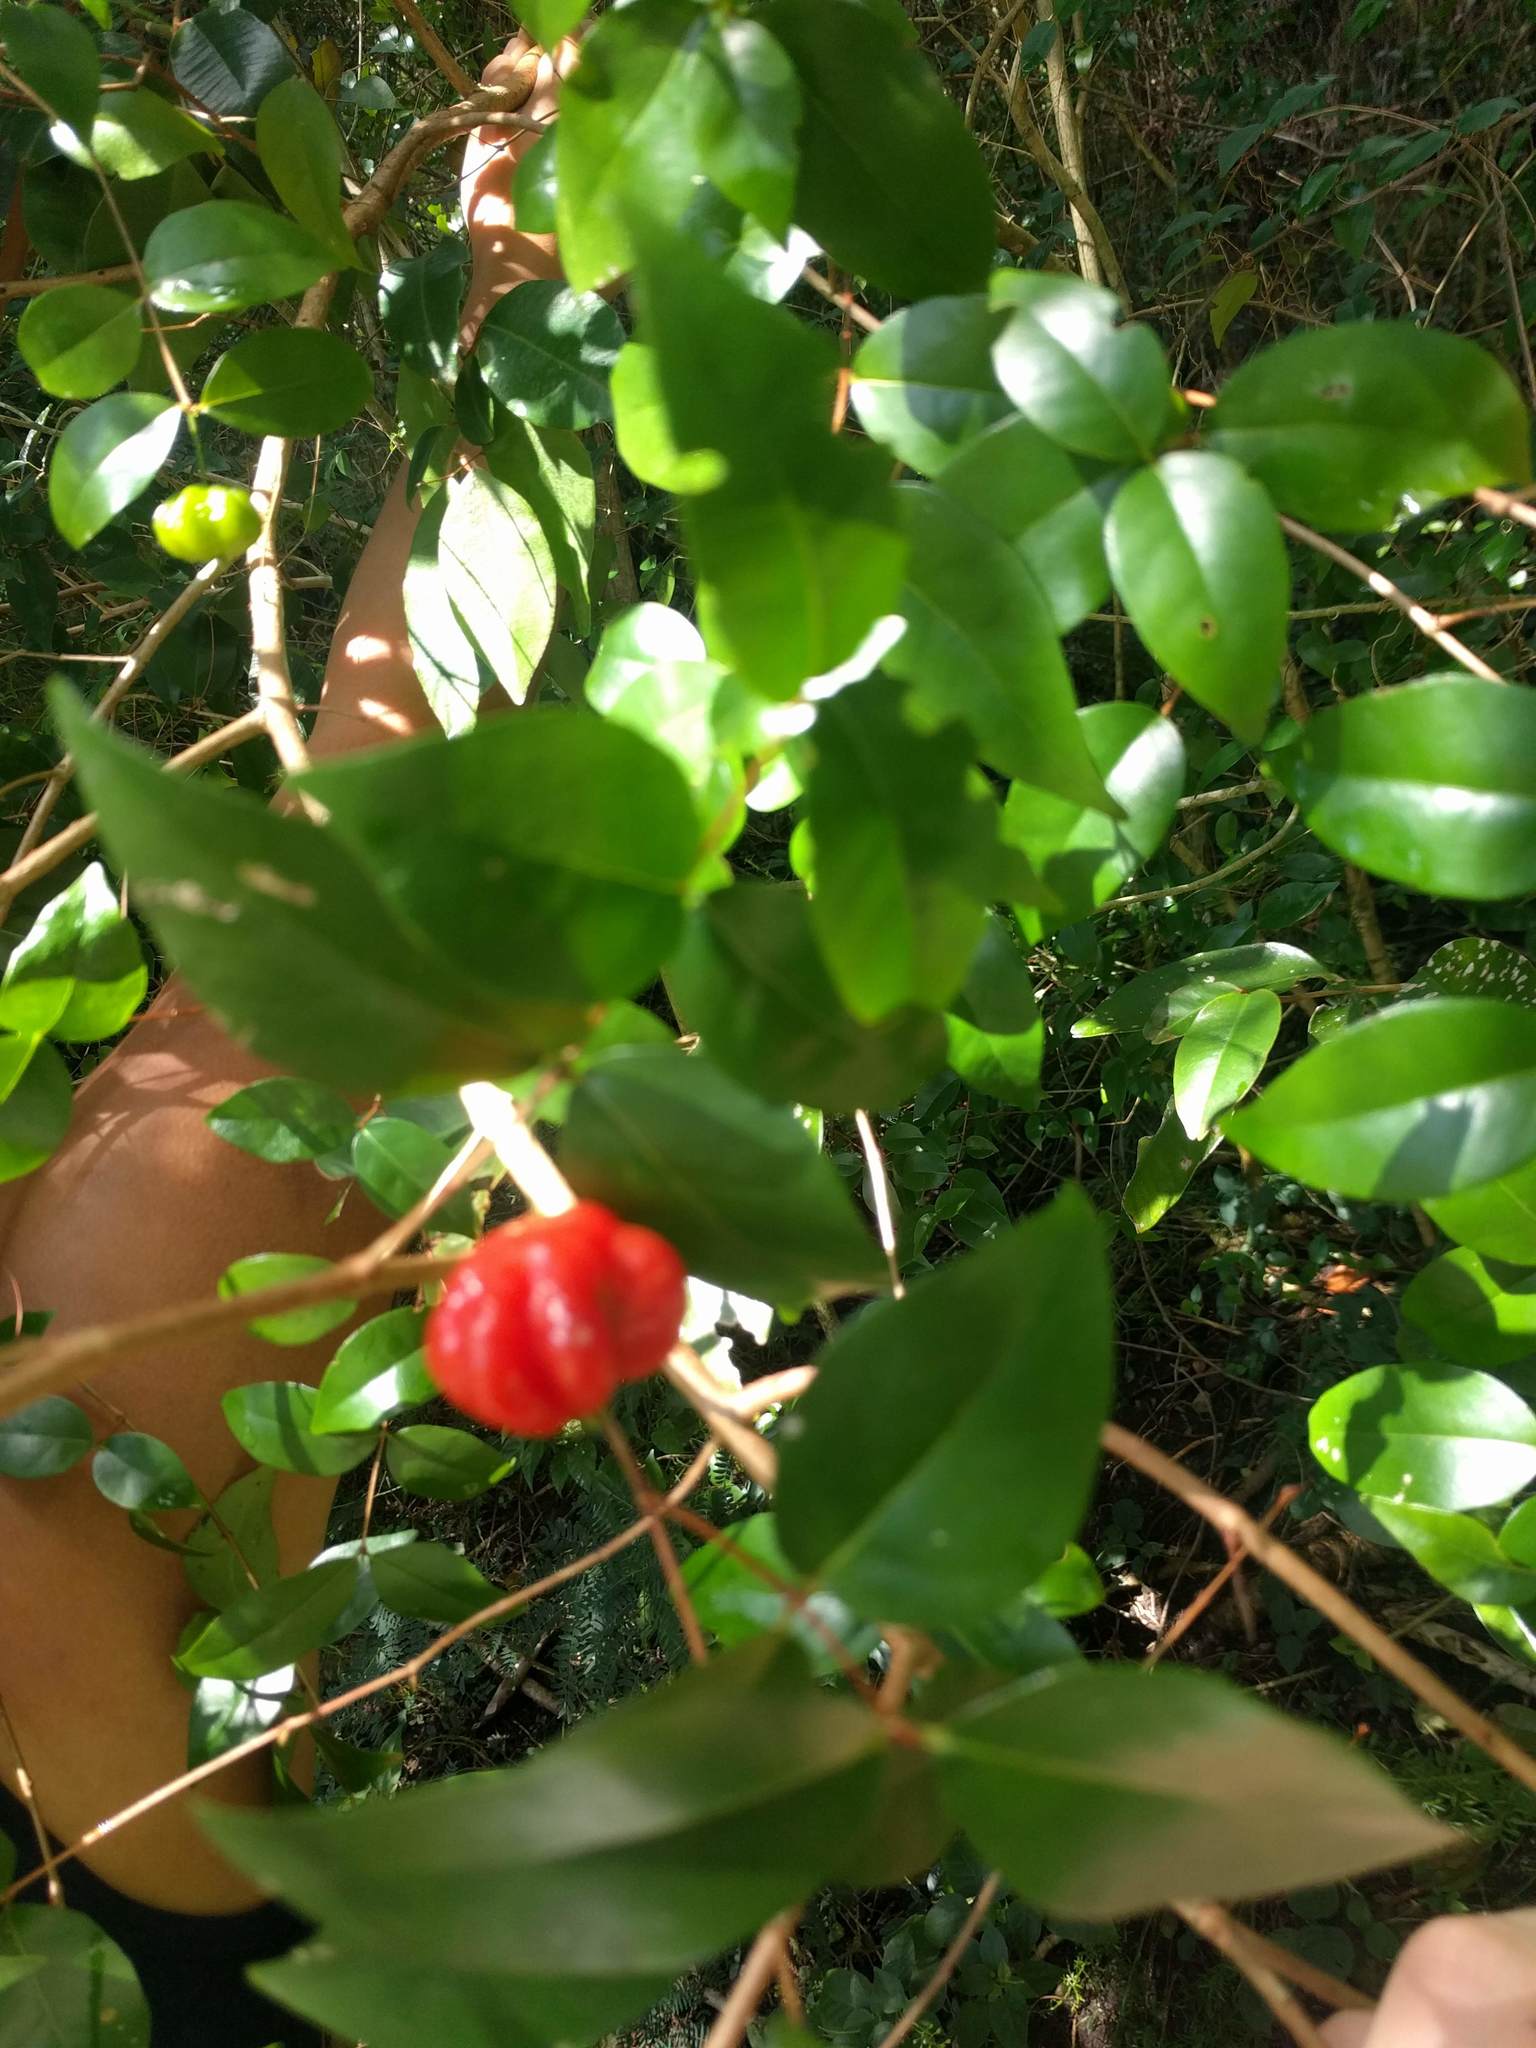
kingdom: Plantae
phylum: Tracheophyta
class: Magnoliopsida
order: Myrtales
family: Myrtaceae
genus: Eugenia
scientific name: Eugenia uniflora
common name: Surinam cherry
